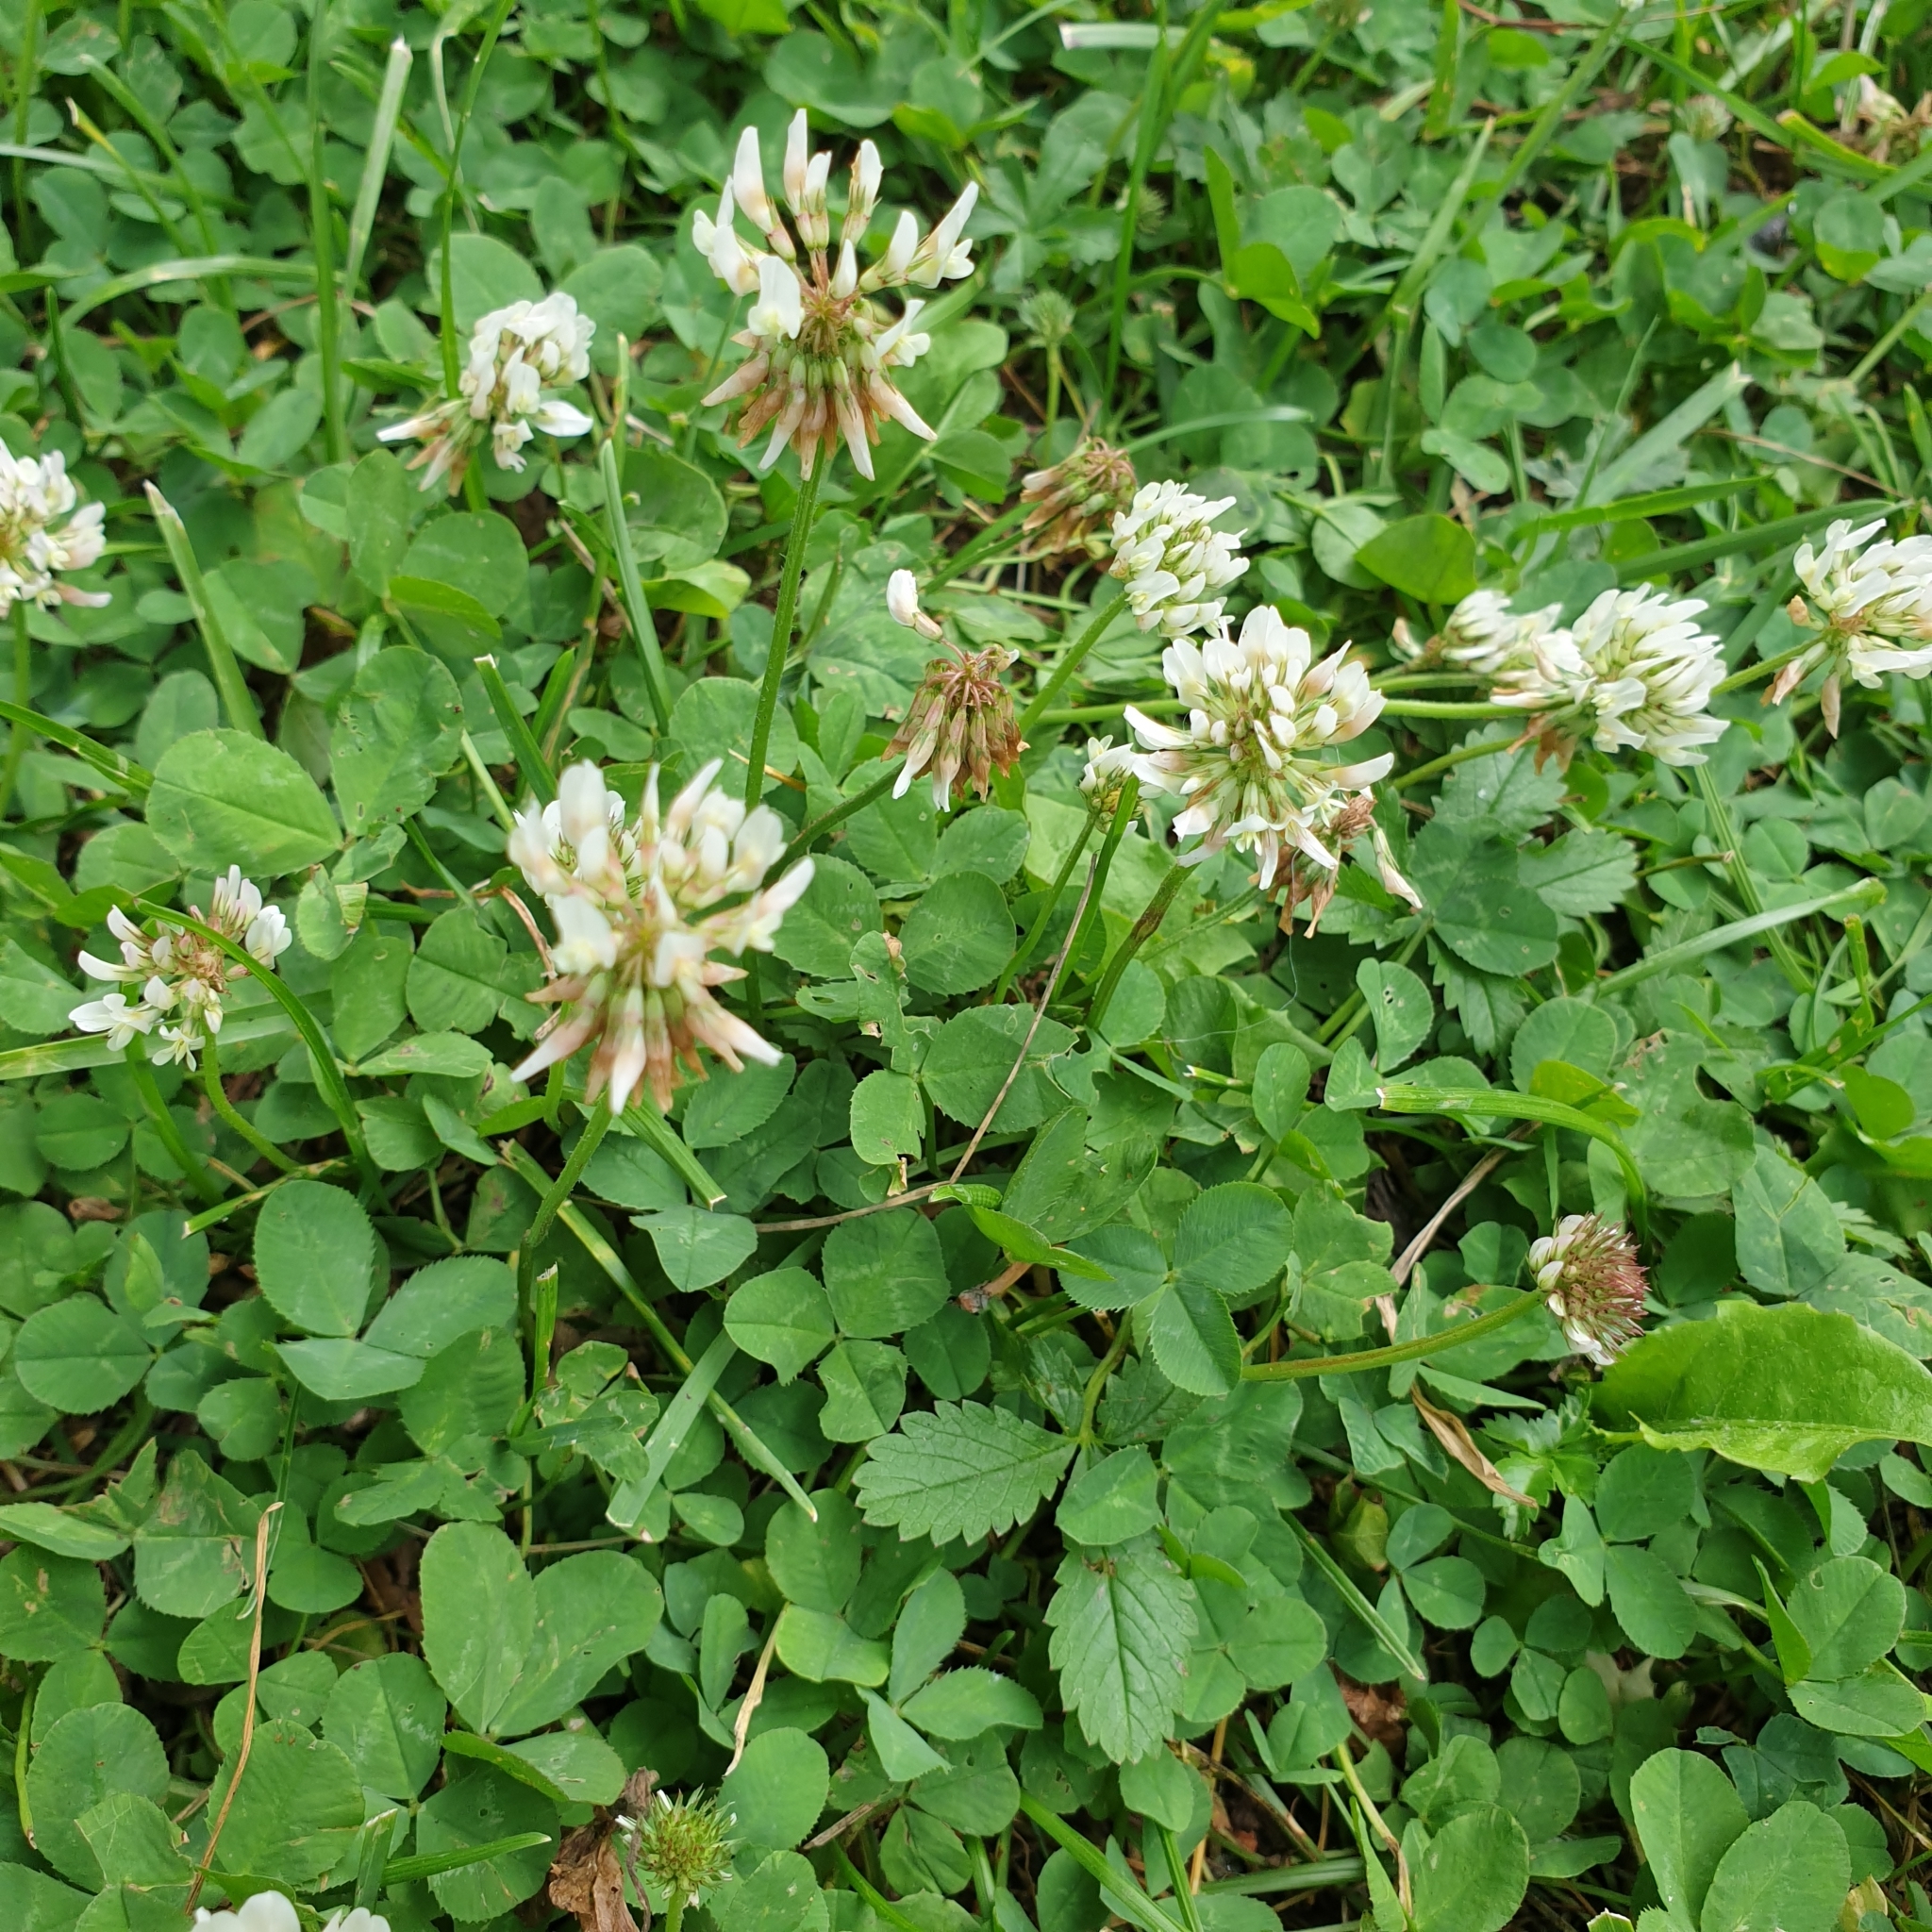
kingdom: Plantae
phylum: Tracheophyta
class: Magnoliopsida
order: Fabales
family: Fabaceae
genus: Trifolium
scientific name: Trifolium repens
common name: White clover
